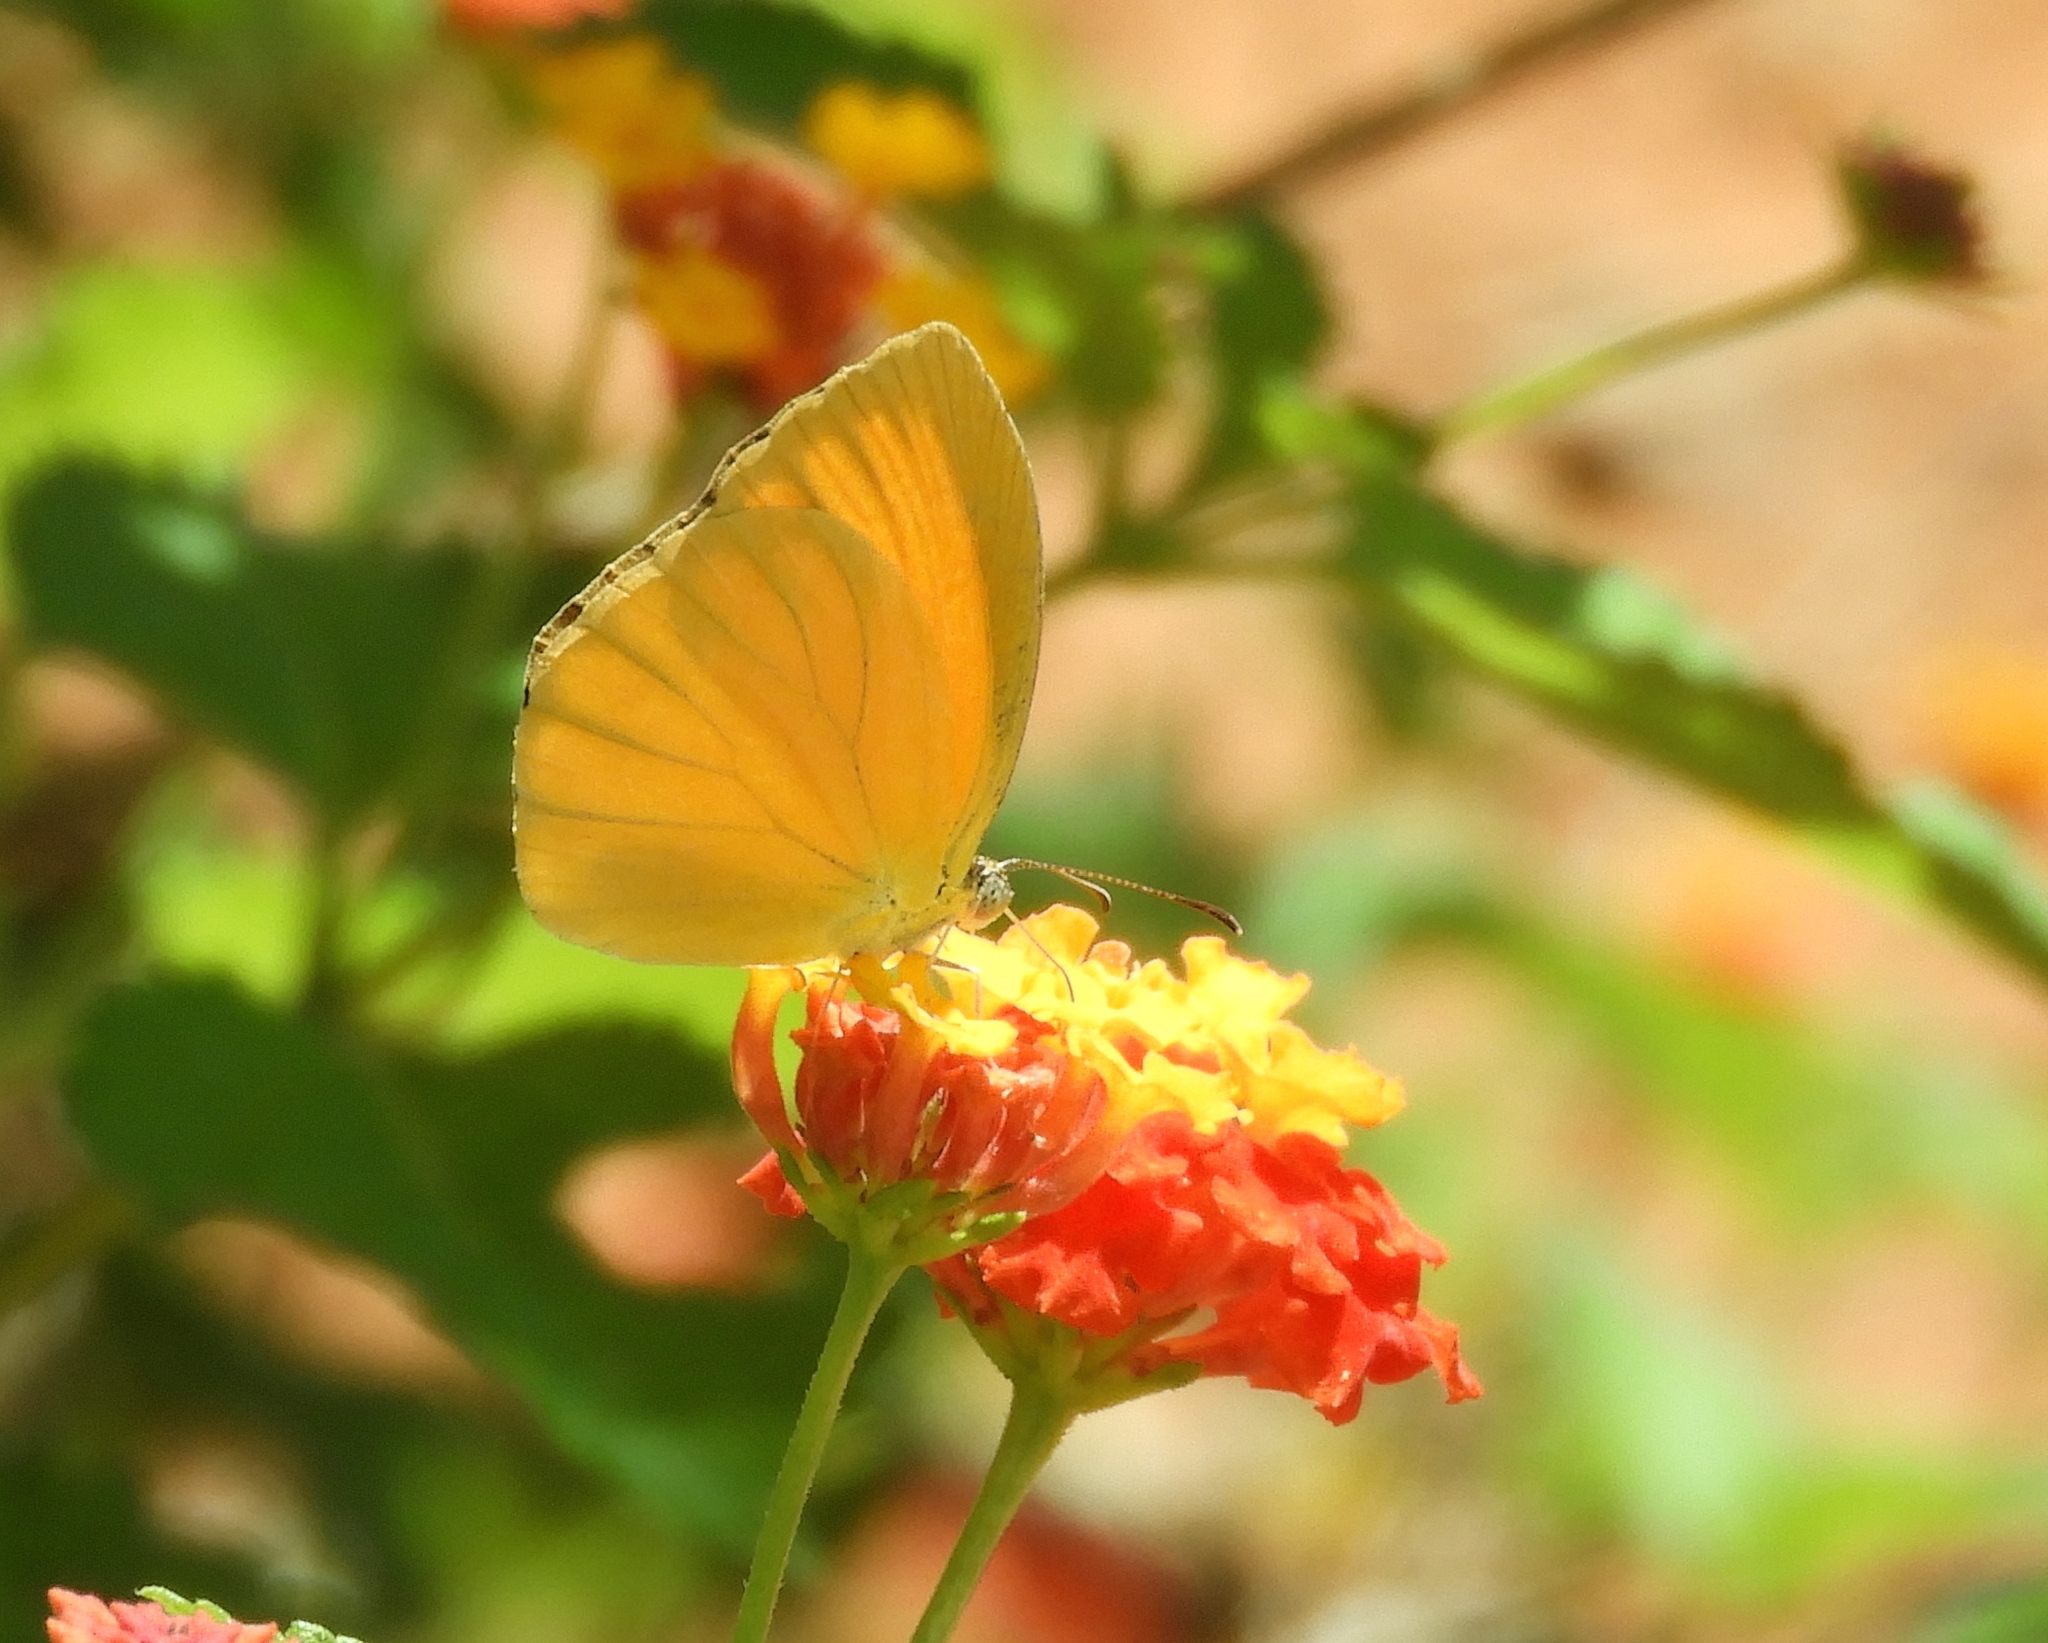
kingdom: Animalia
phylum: Arthropoda
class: Insecta
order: Lepidoptera
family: Pieridae
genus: Pyrisitia
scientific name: Pyrisitia proterpia
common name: Tailed orange
